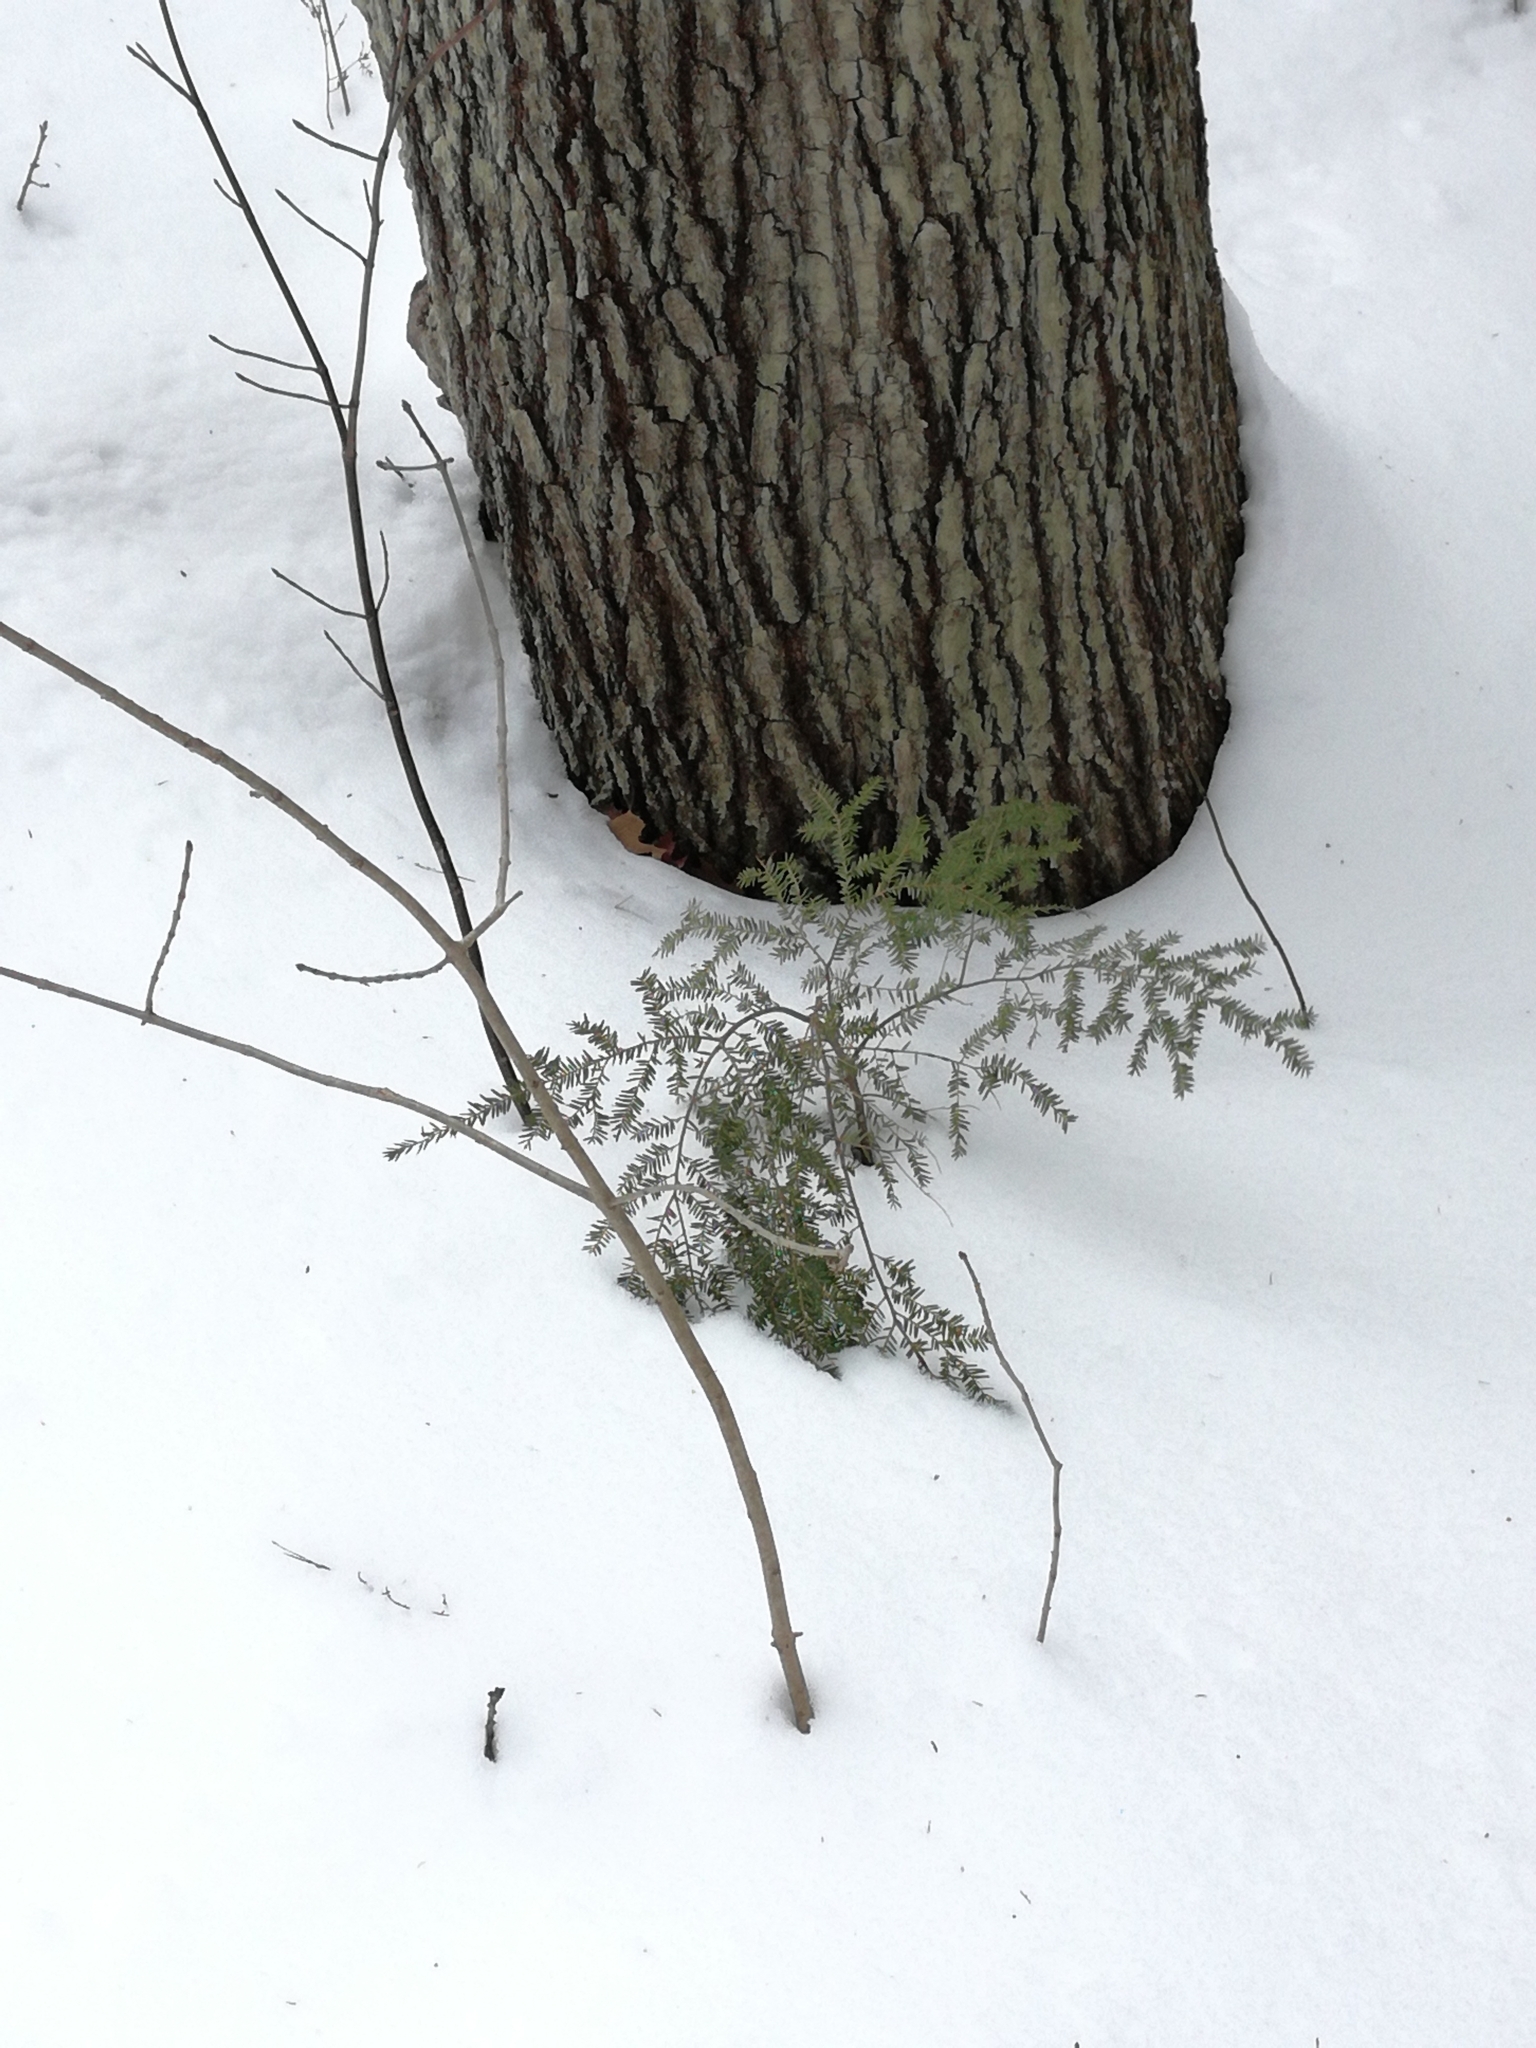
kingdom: Plantae
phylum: Tracheophyta
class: Pinopsida
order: Pinales
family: Pinaceae
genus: Tsuga
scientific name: Tsuga canadensis
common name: Eastern hemlock
